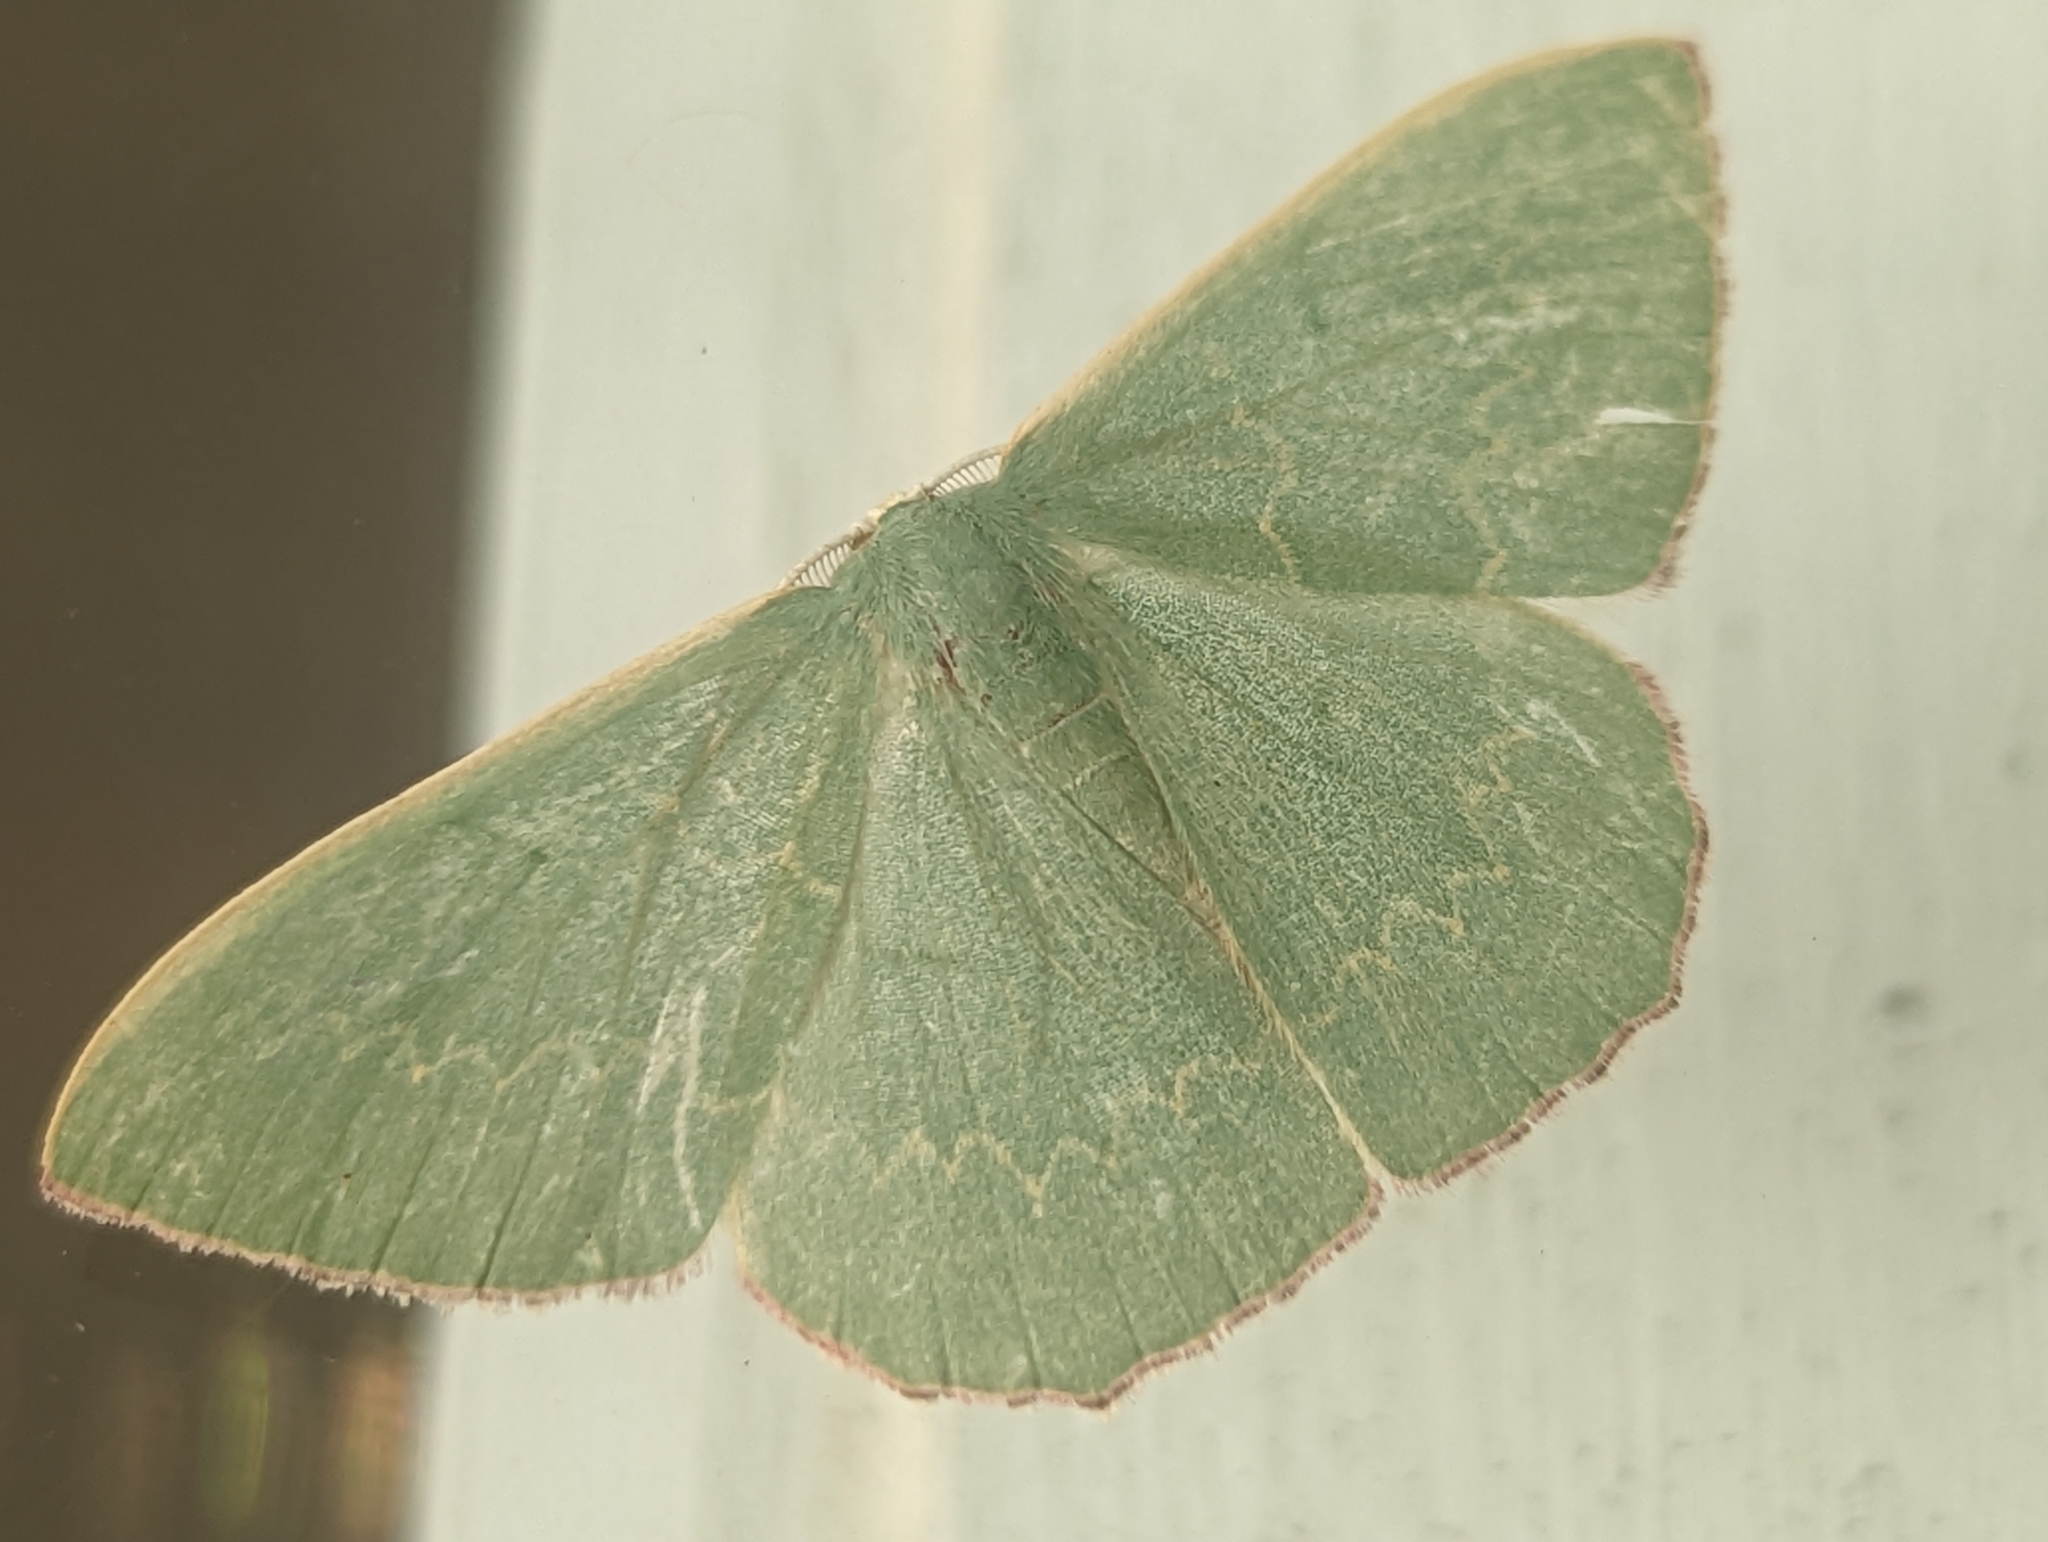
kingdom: Animalia
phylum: Arthropoda
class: Insecta
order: Lepidoptera
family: Geometridae
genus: Prasinocyma
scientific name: Prasinocyma semicrocea
